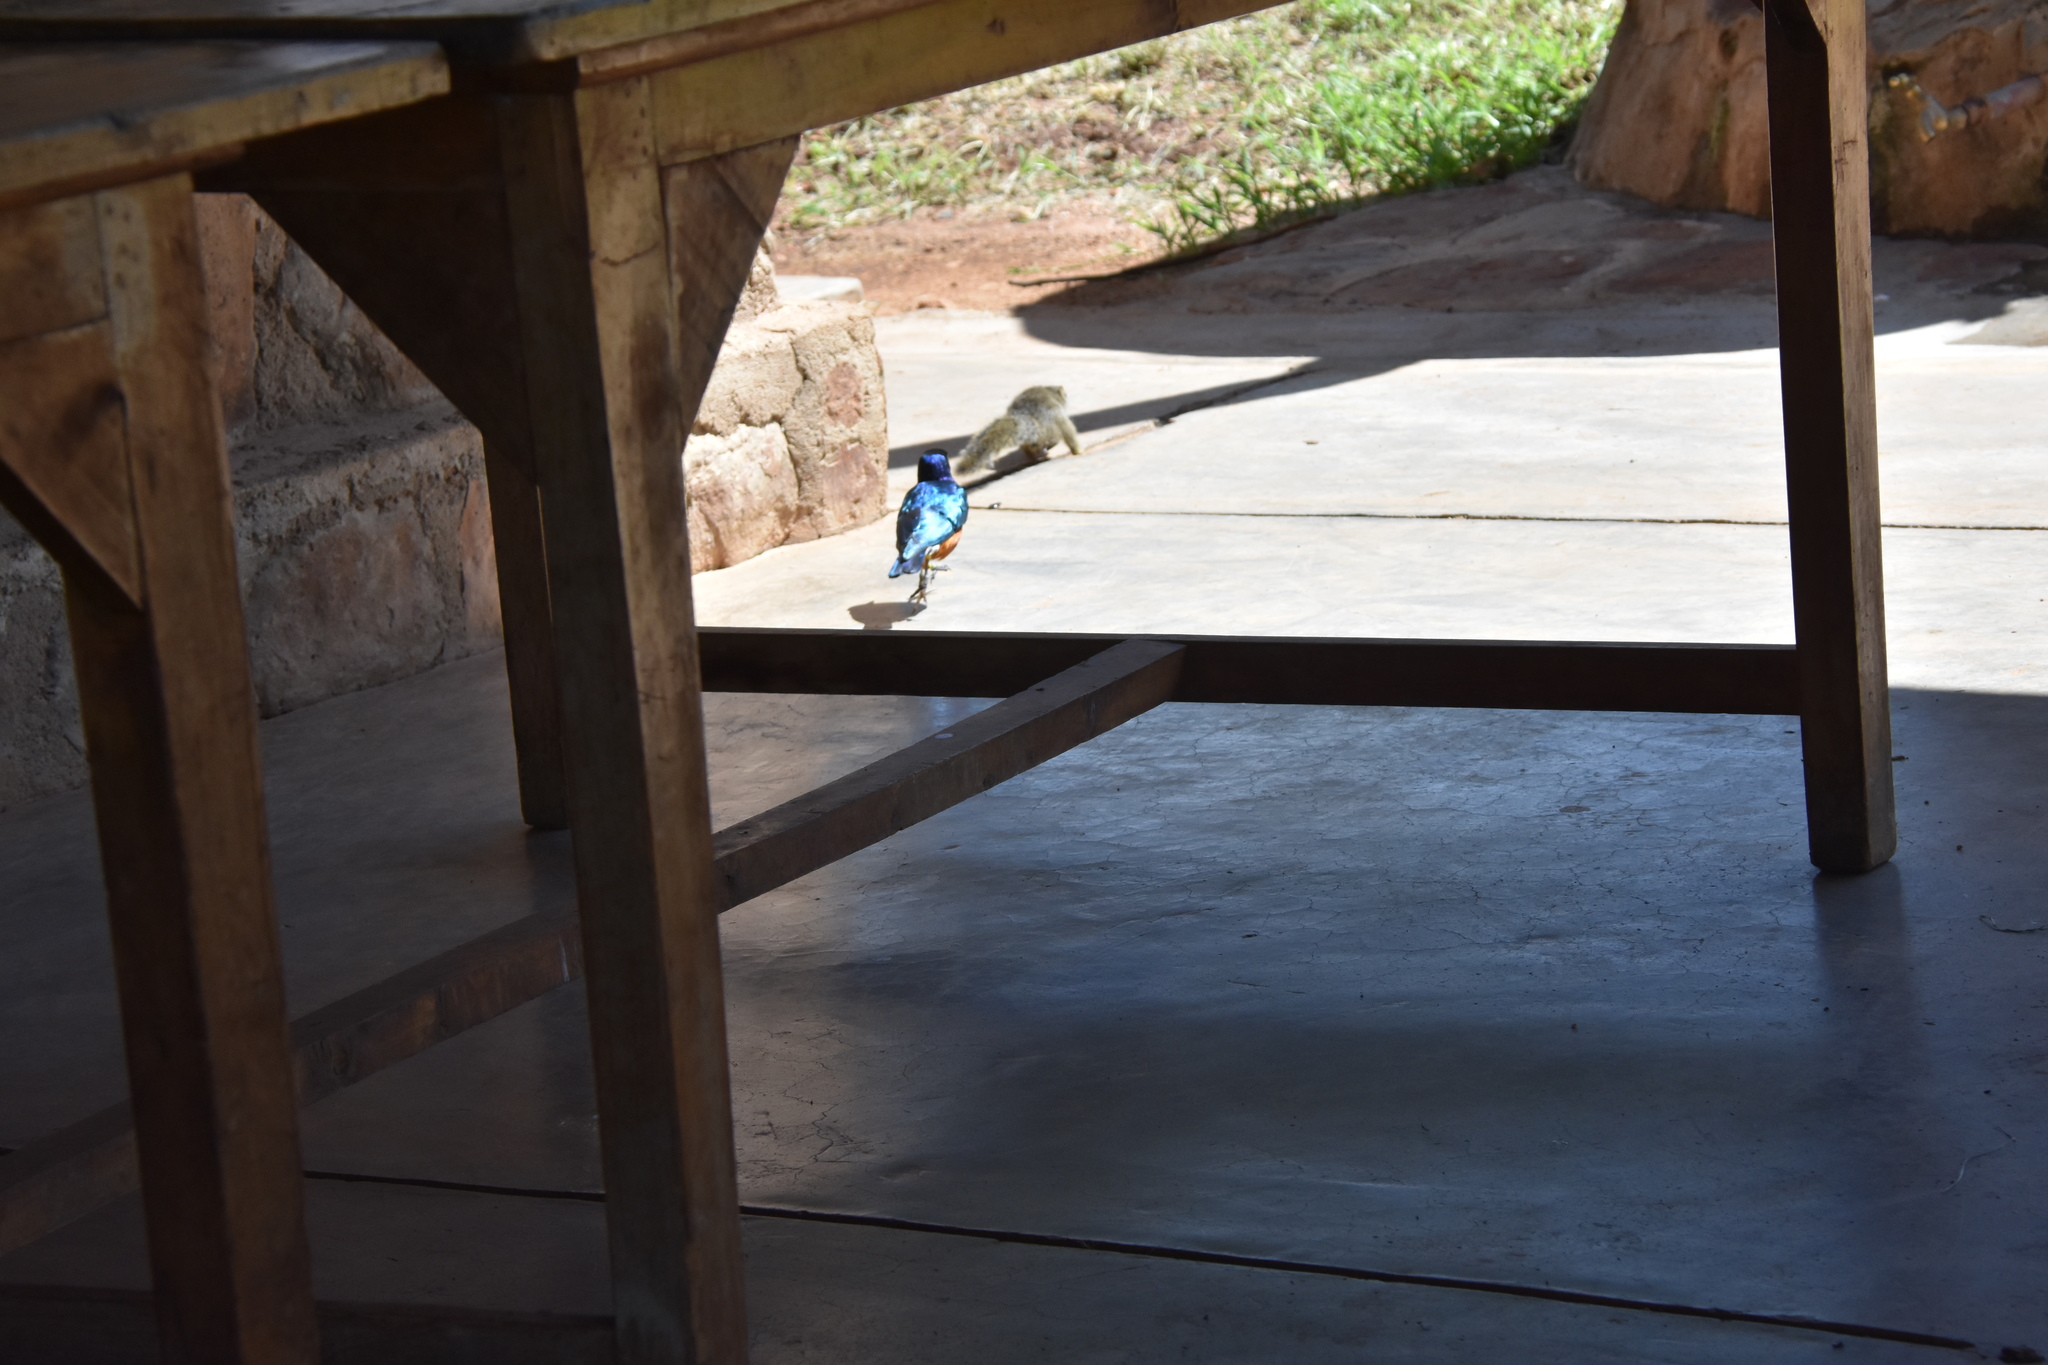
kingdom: Animalia
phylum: Chordata
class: Aves
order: Passeriformes
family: Sturnidae
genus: Lamprotornis
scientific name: Lamprotornis superbus
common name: Superb starling
